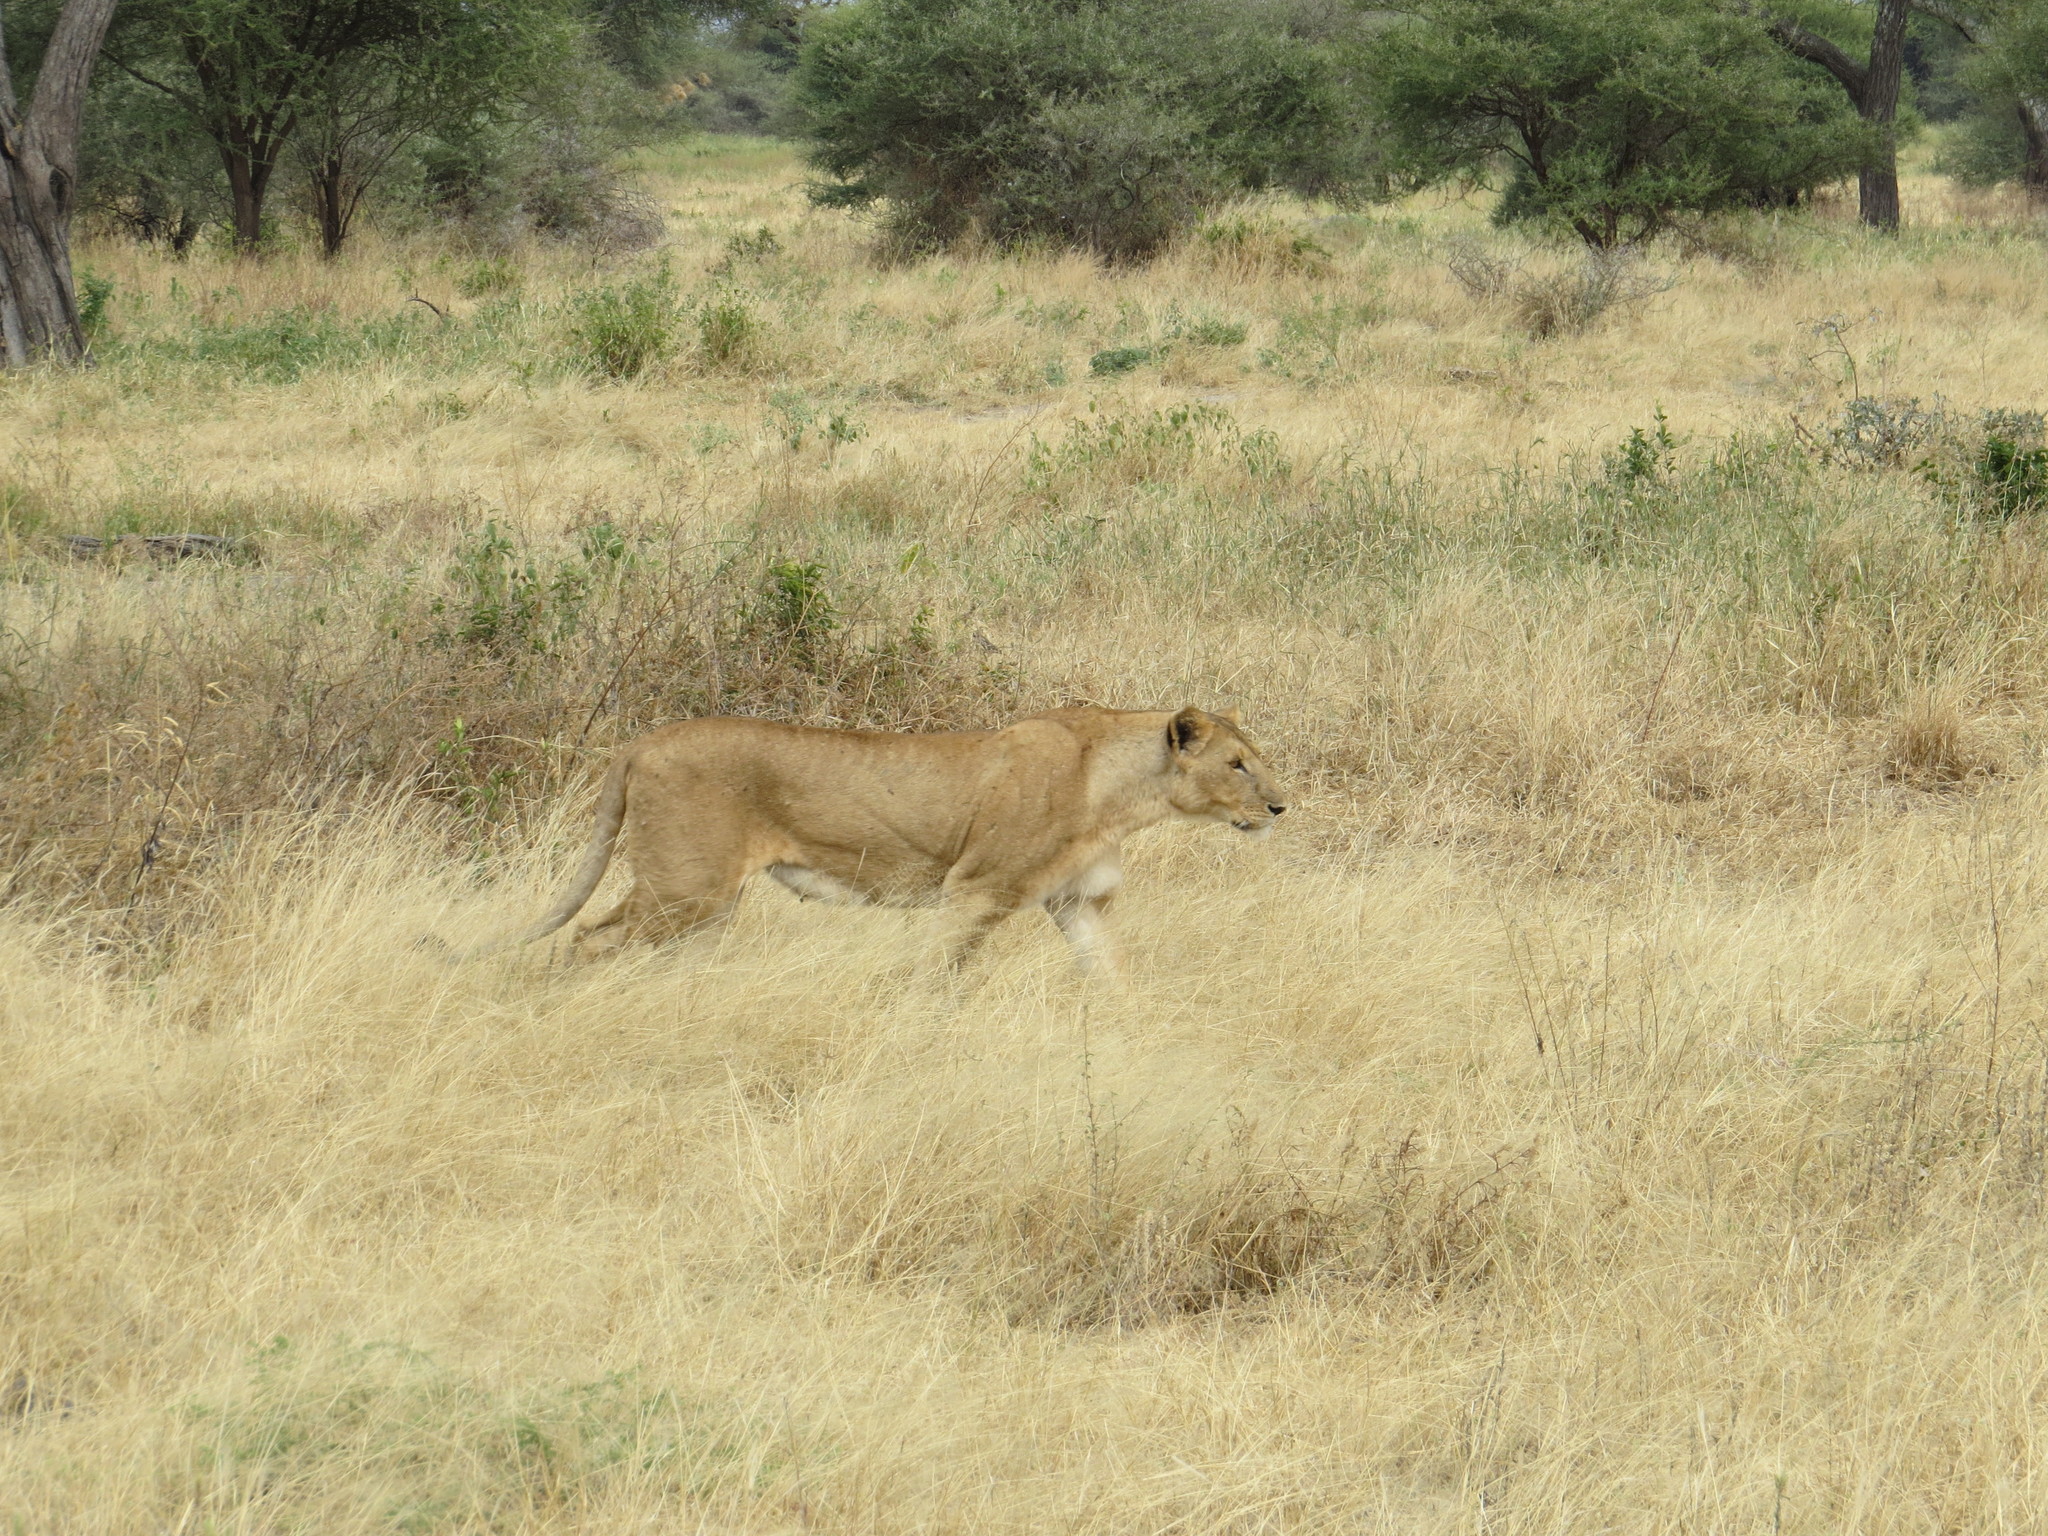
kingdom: Animalia
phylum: Chordata
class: Mammalia
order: Carnivora
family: Felidae
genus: Panthera
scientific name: Panthera leo
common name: Lion
